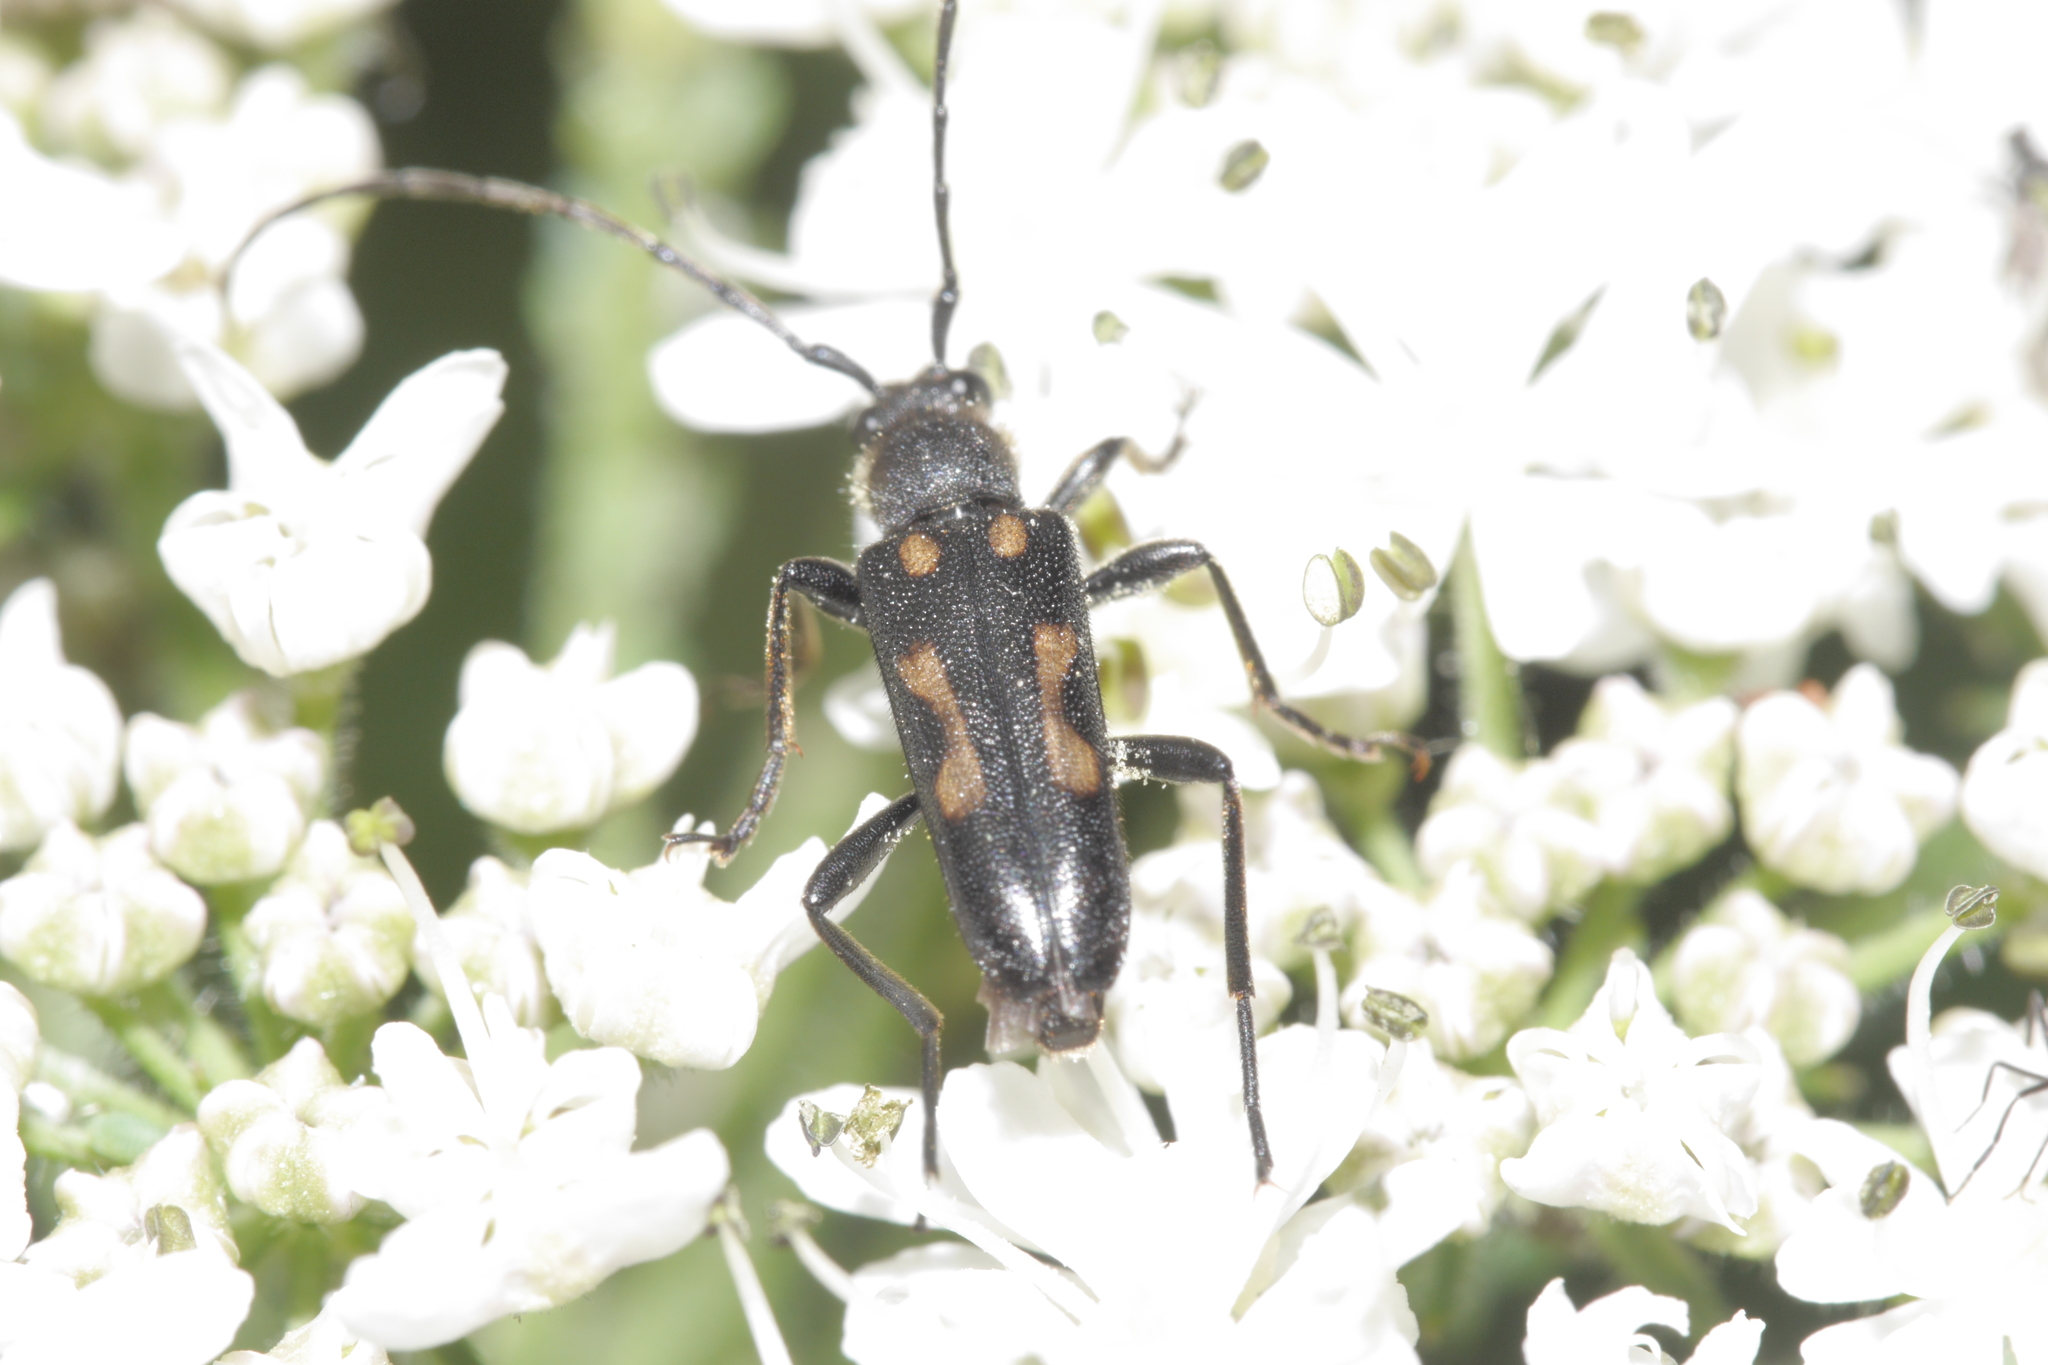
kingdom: Animalia
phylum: Arthropoda
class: Insecta
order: Coleoptera
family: Cerambycidae
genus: Anoplodera
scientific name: Anoplodera sexguttata
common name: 6 spotted longhorn
